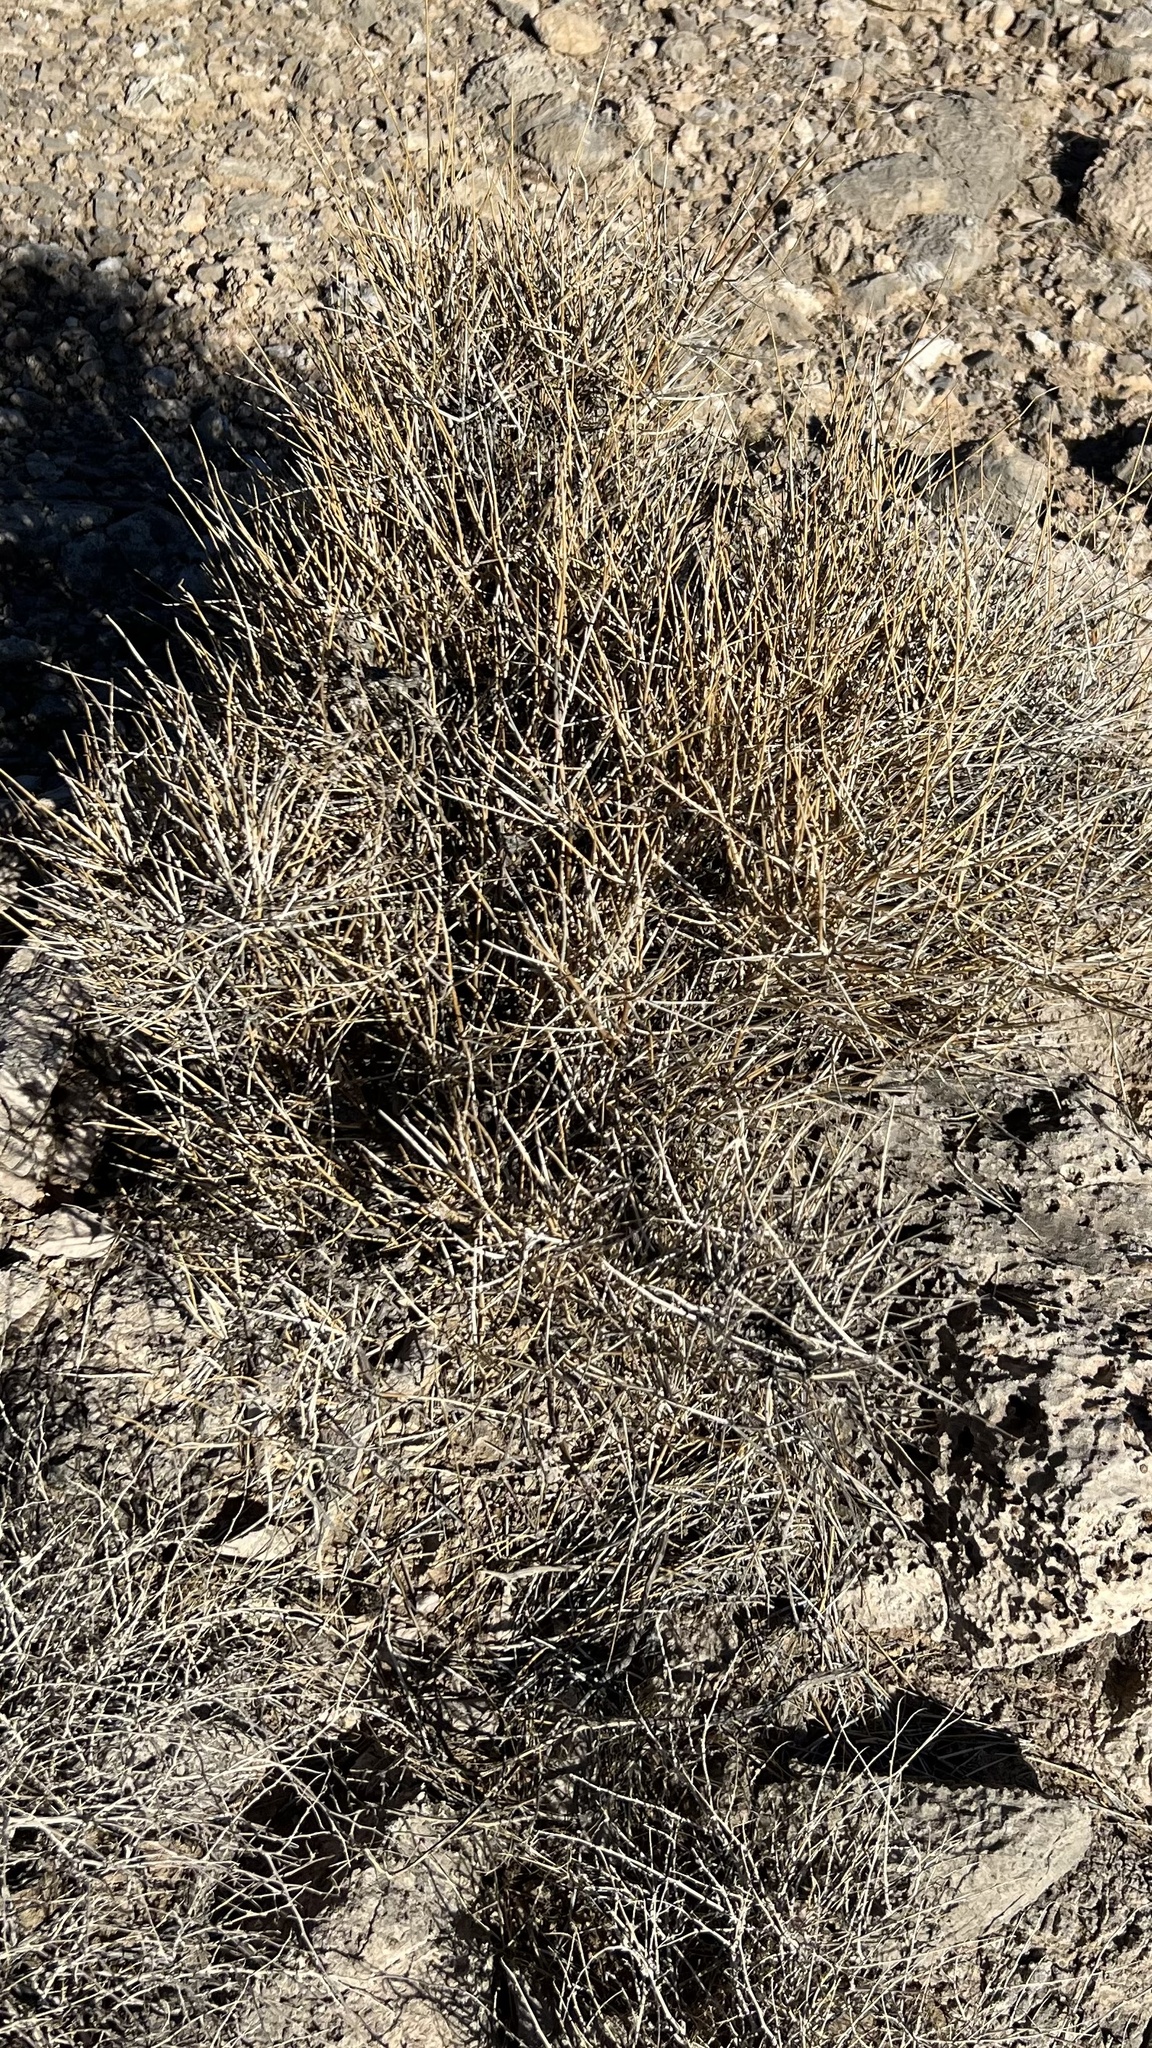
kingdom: Plantae
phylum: Tracheophyta
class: Gnetopsida
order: Ephedrales
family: Ephedraceae
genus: Ephedra
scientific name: Ephedra nevadensis
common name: Gray ephedra
